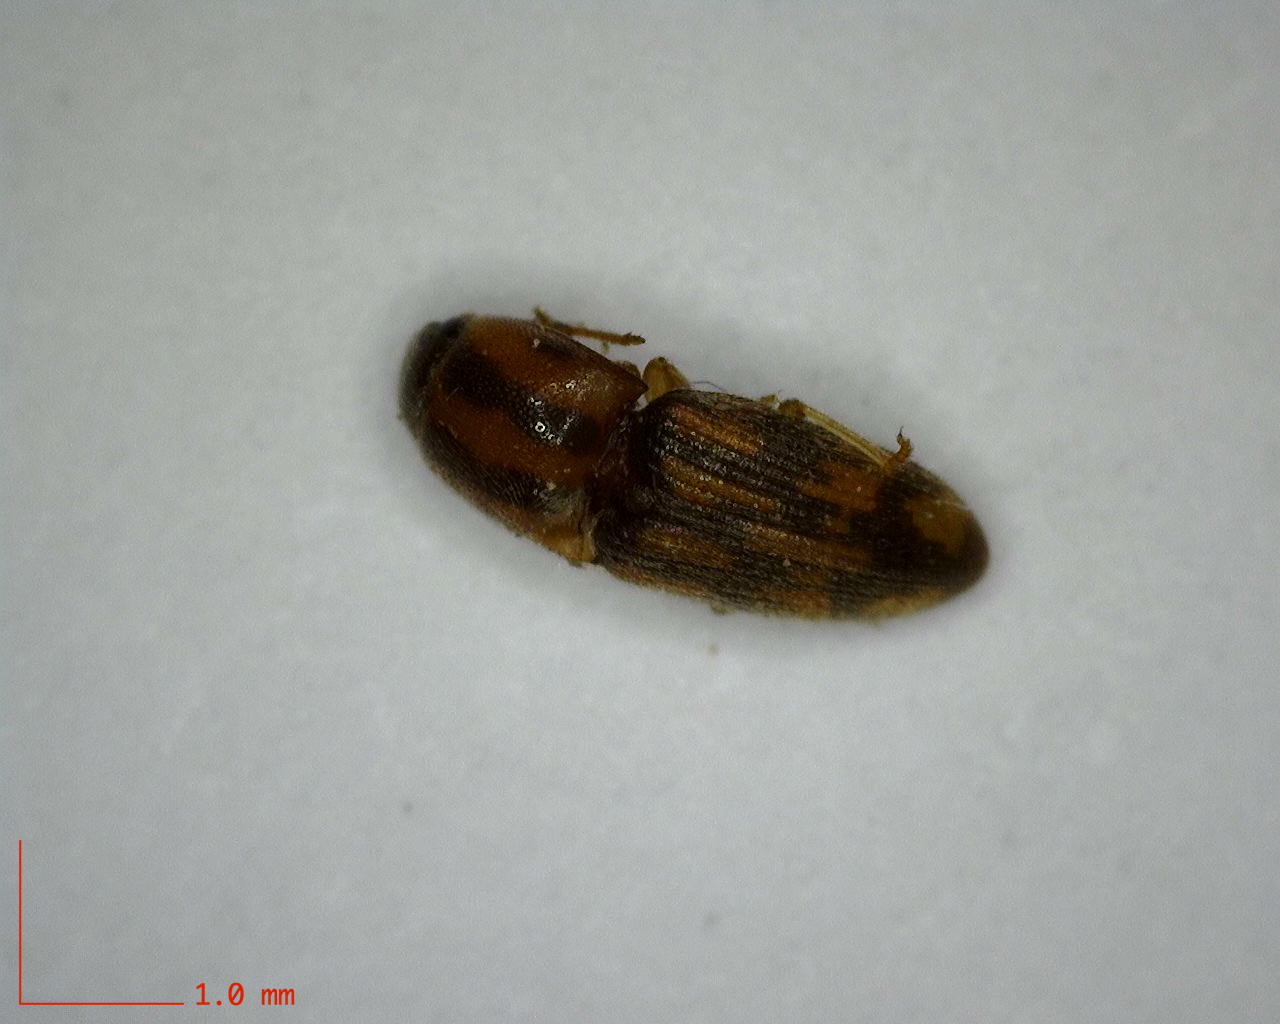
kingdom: Animalia
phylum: Arthropoda
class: Insecta
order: Coleoptera
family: Elateridae
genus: Monocrepidius
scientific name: Monocrepidius bellus
